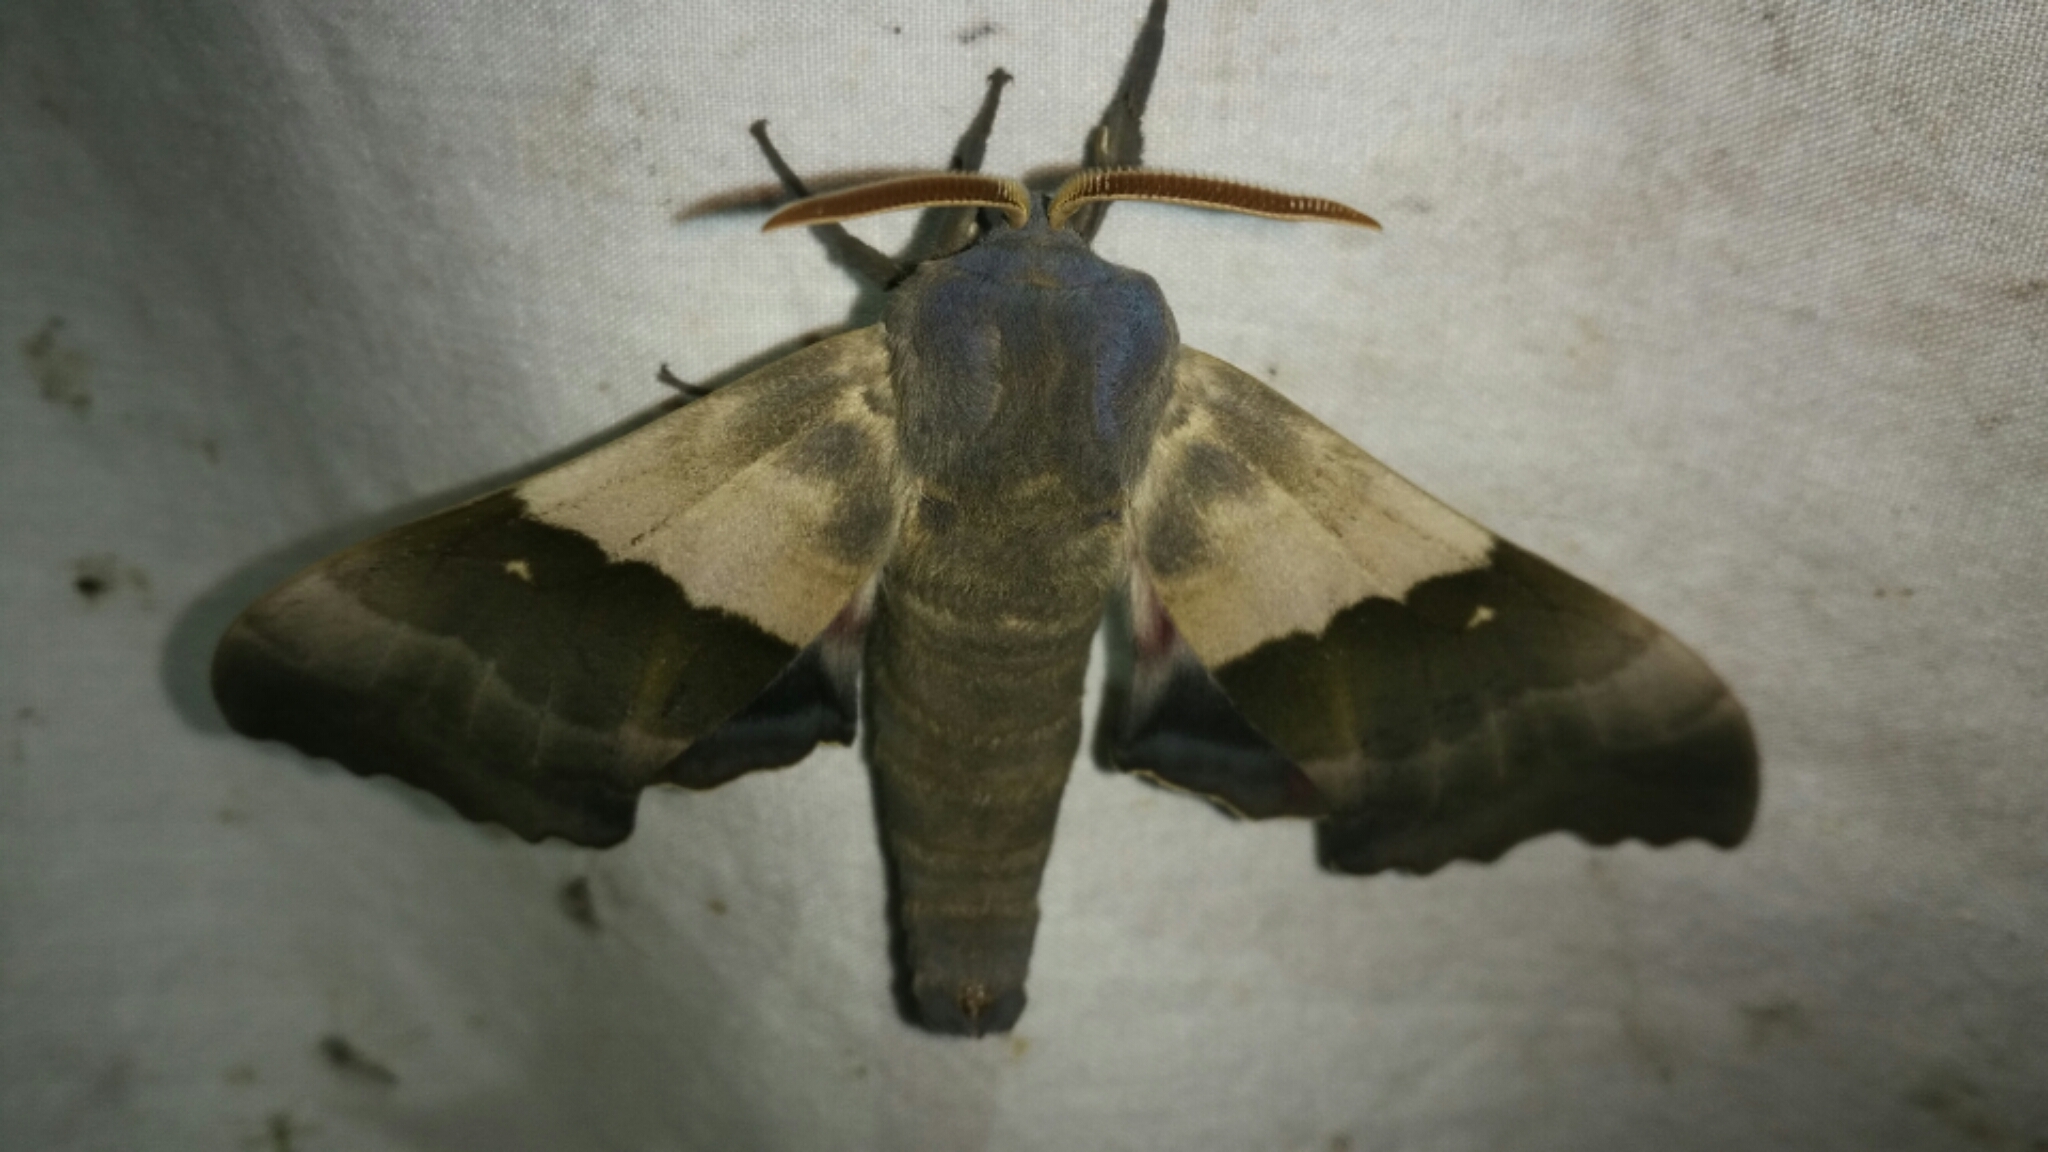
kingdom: Animalia
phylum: Arthropoda
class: Insecta
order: Lepidoptera
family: Sphingidae
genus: Pachysphinx
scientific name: Pachysphinx modesta
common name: Big poplar sphinx
